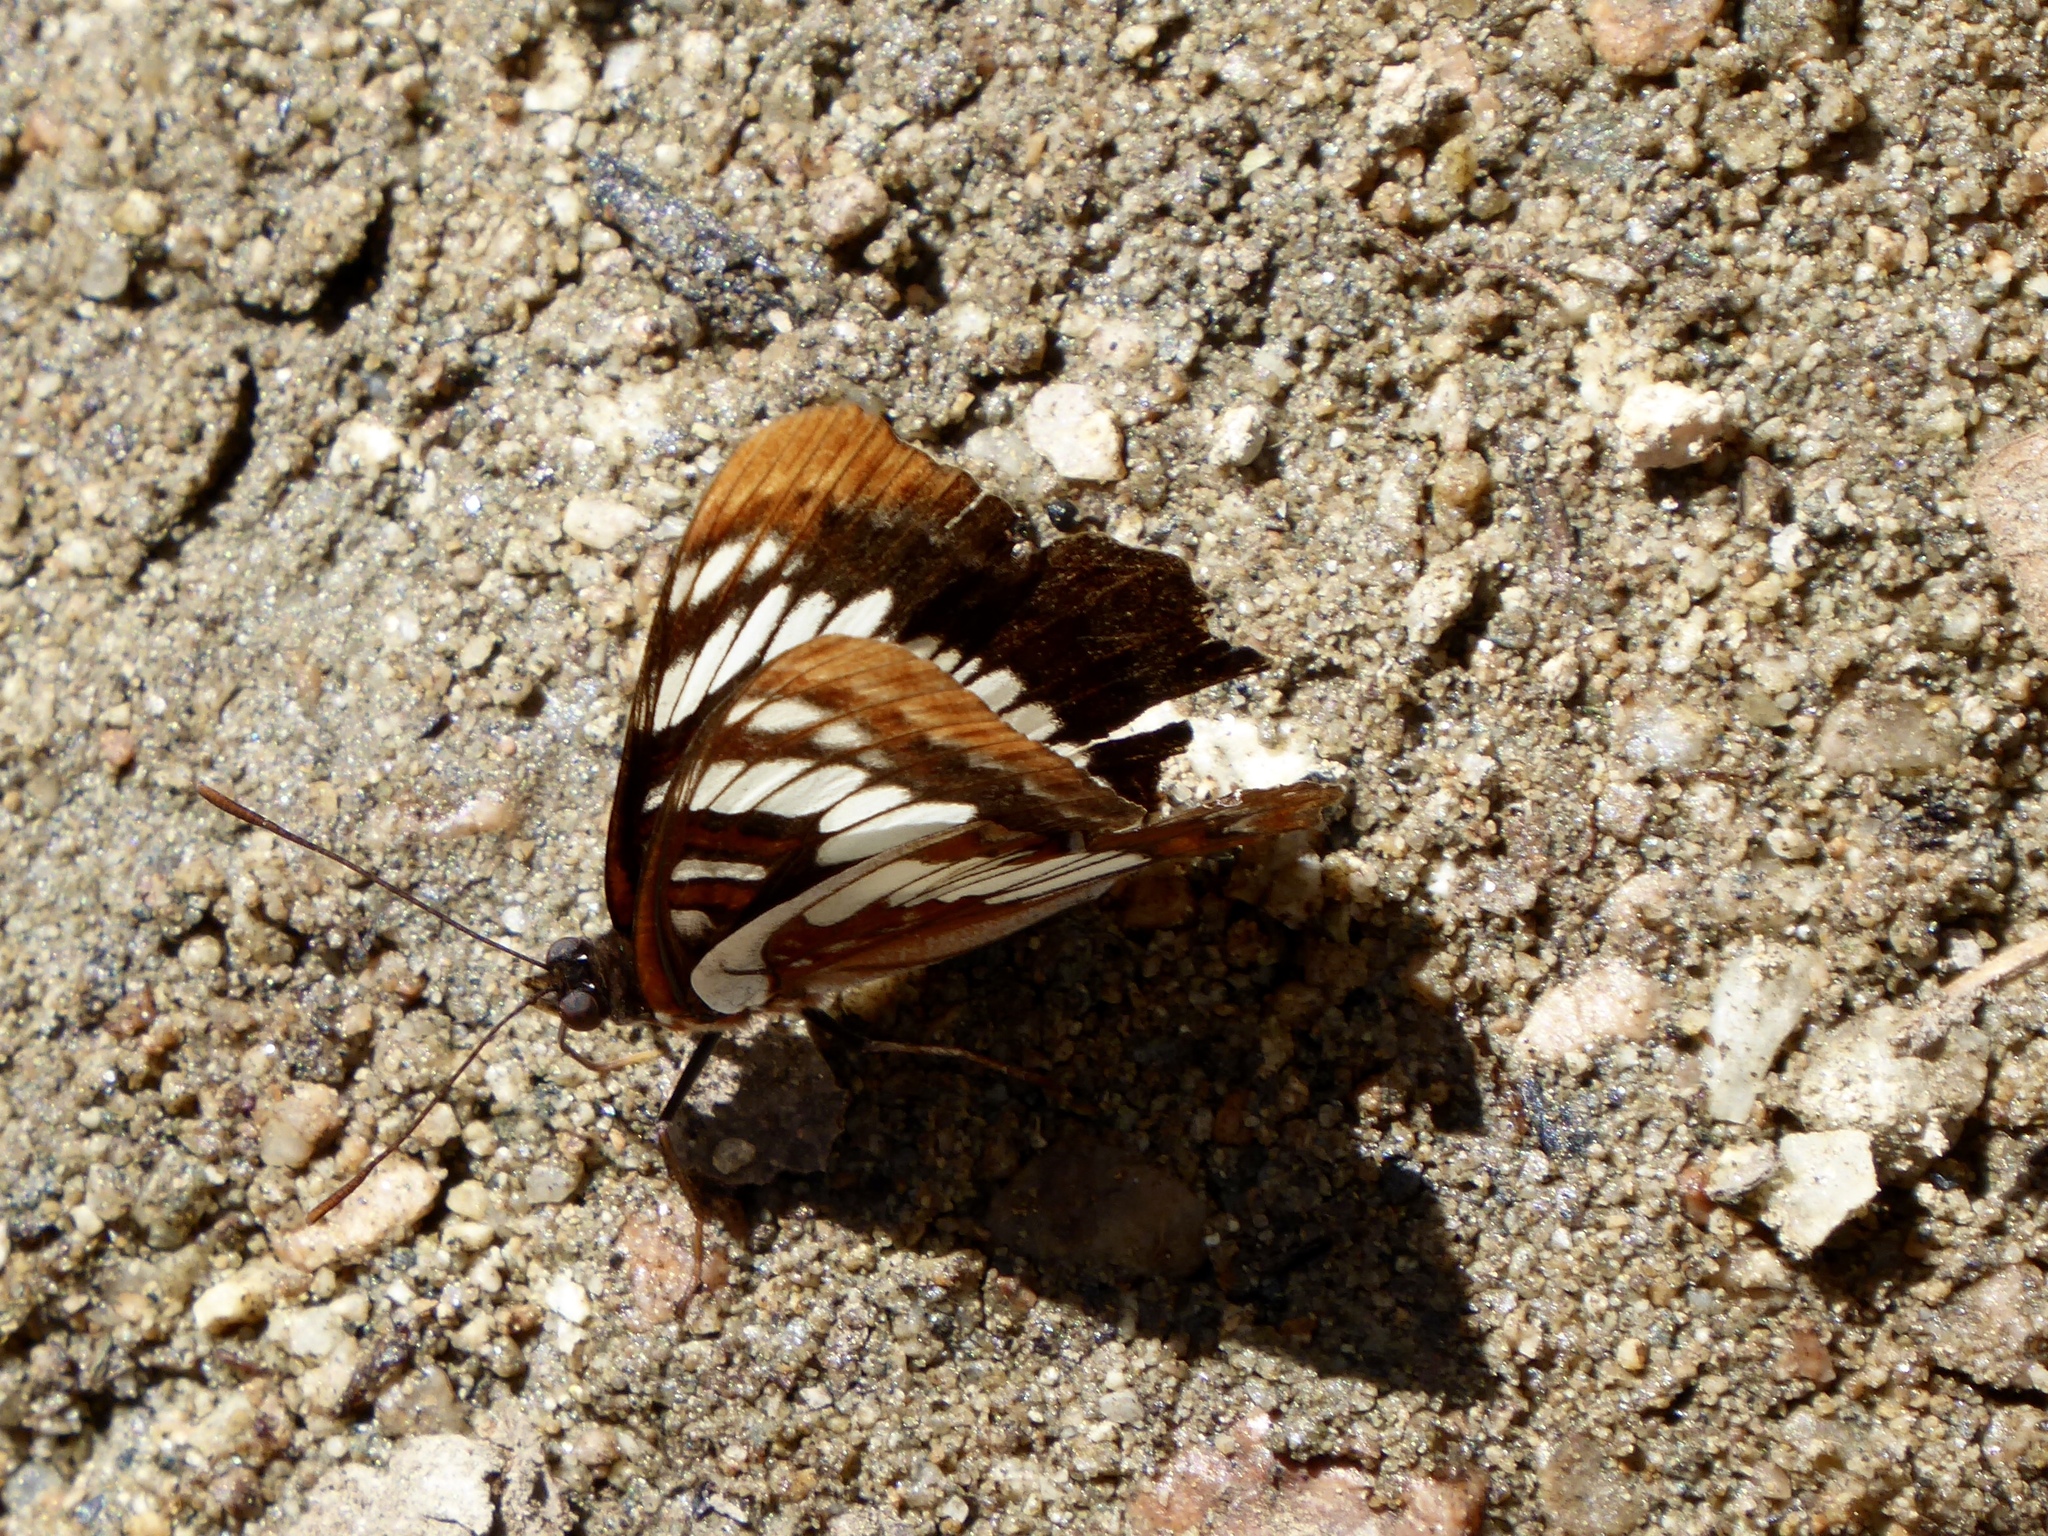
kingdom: Animalia
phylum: Arthropoda
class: Insecta
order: Lepidoptera
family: Nymphalidae
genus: Limenitis
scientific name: Limenitis lorquini
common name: Lorquin's admiral
